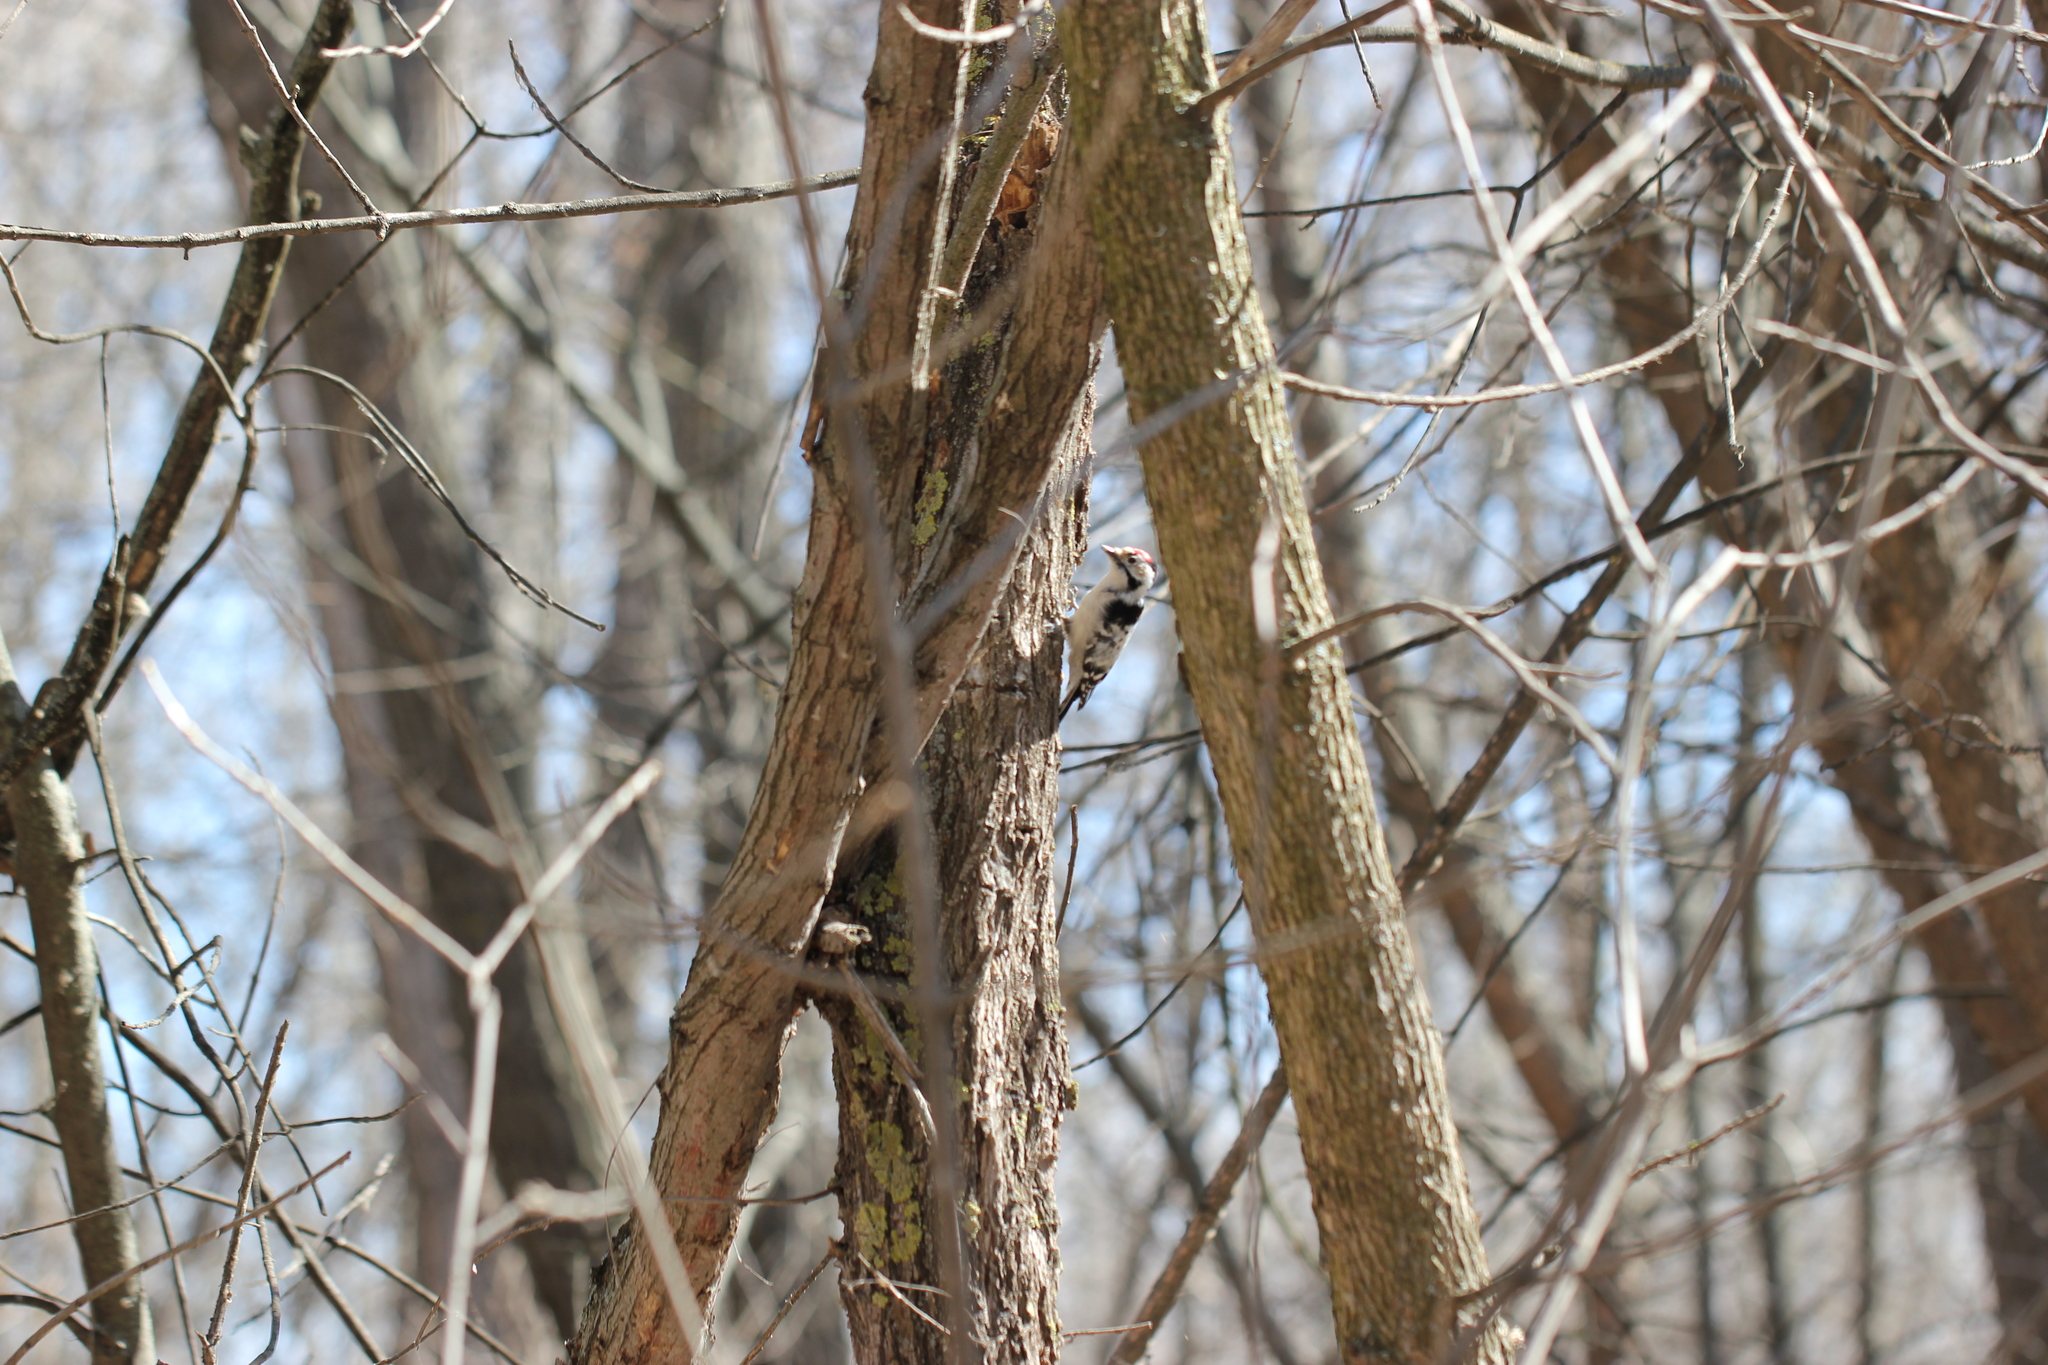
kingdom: Animalia
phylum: Chordata
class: Aves
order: Piciformes
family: Picidae
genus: Dryobates
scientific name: Dryobates minor
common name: Lesser spotted woodpecker
